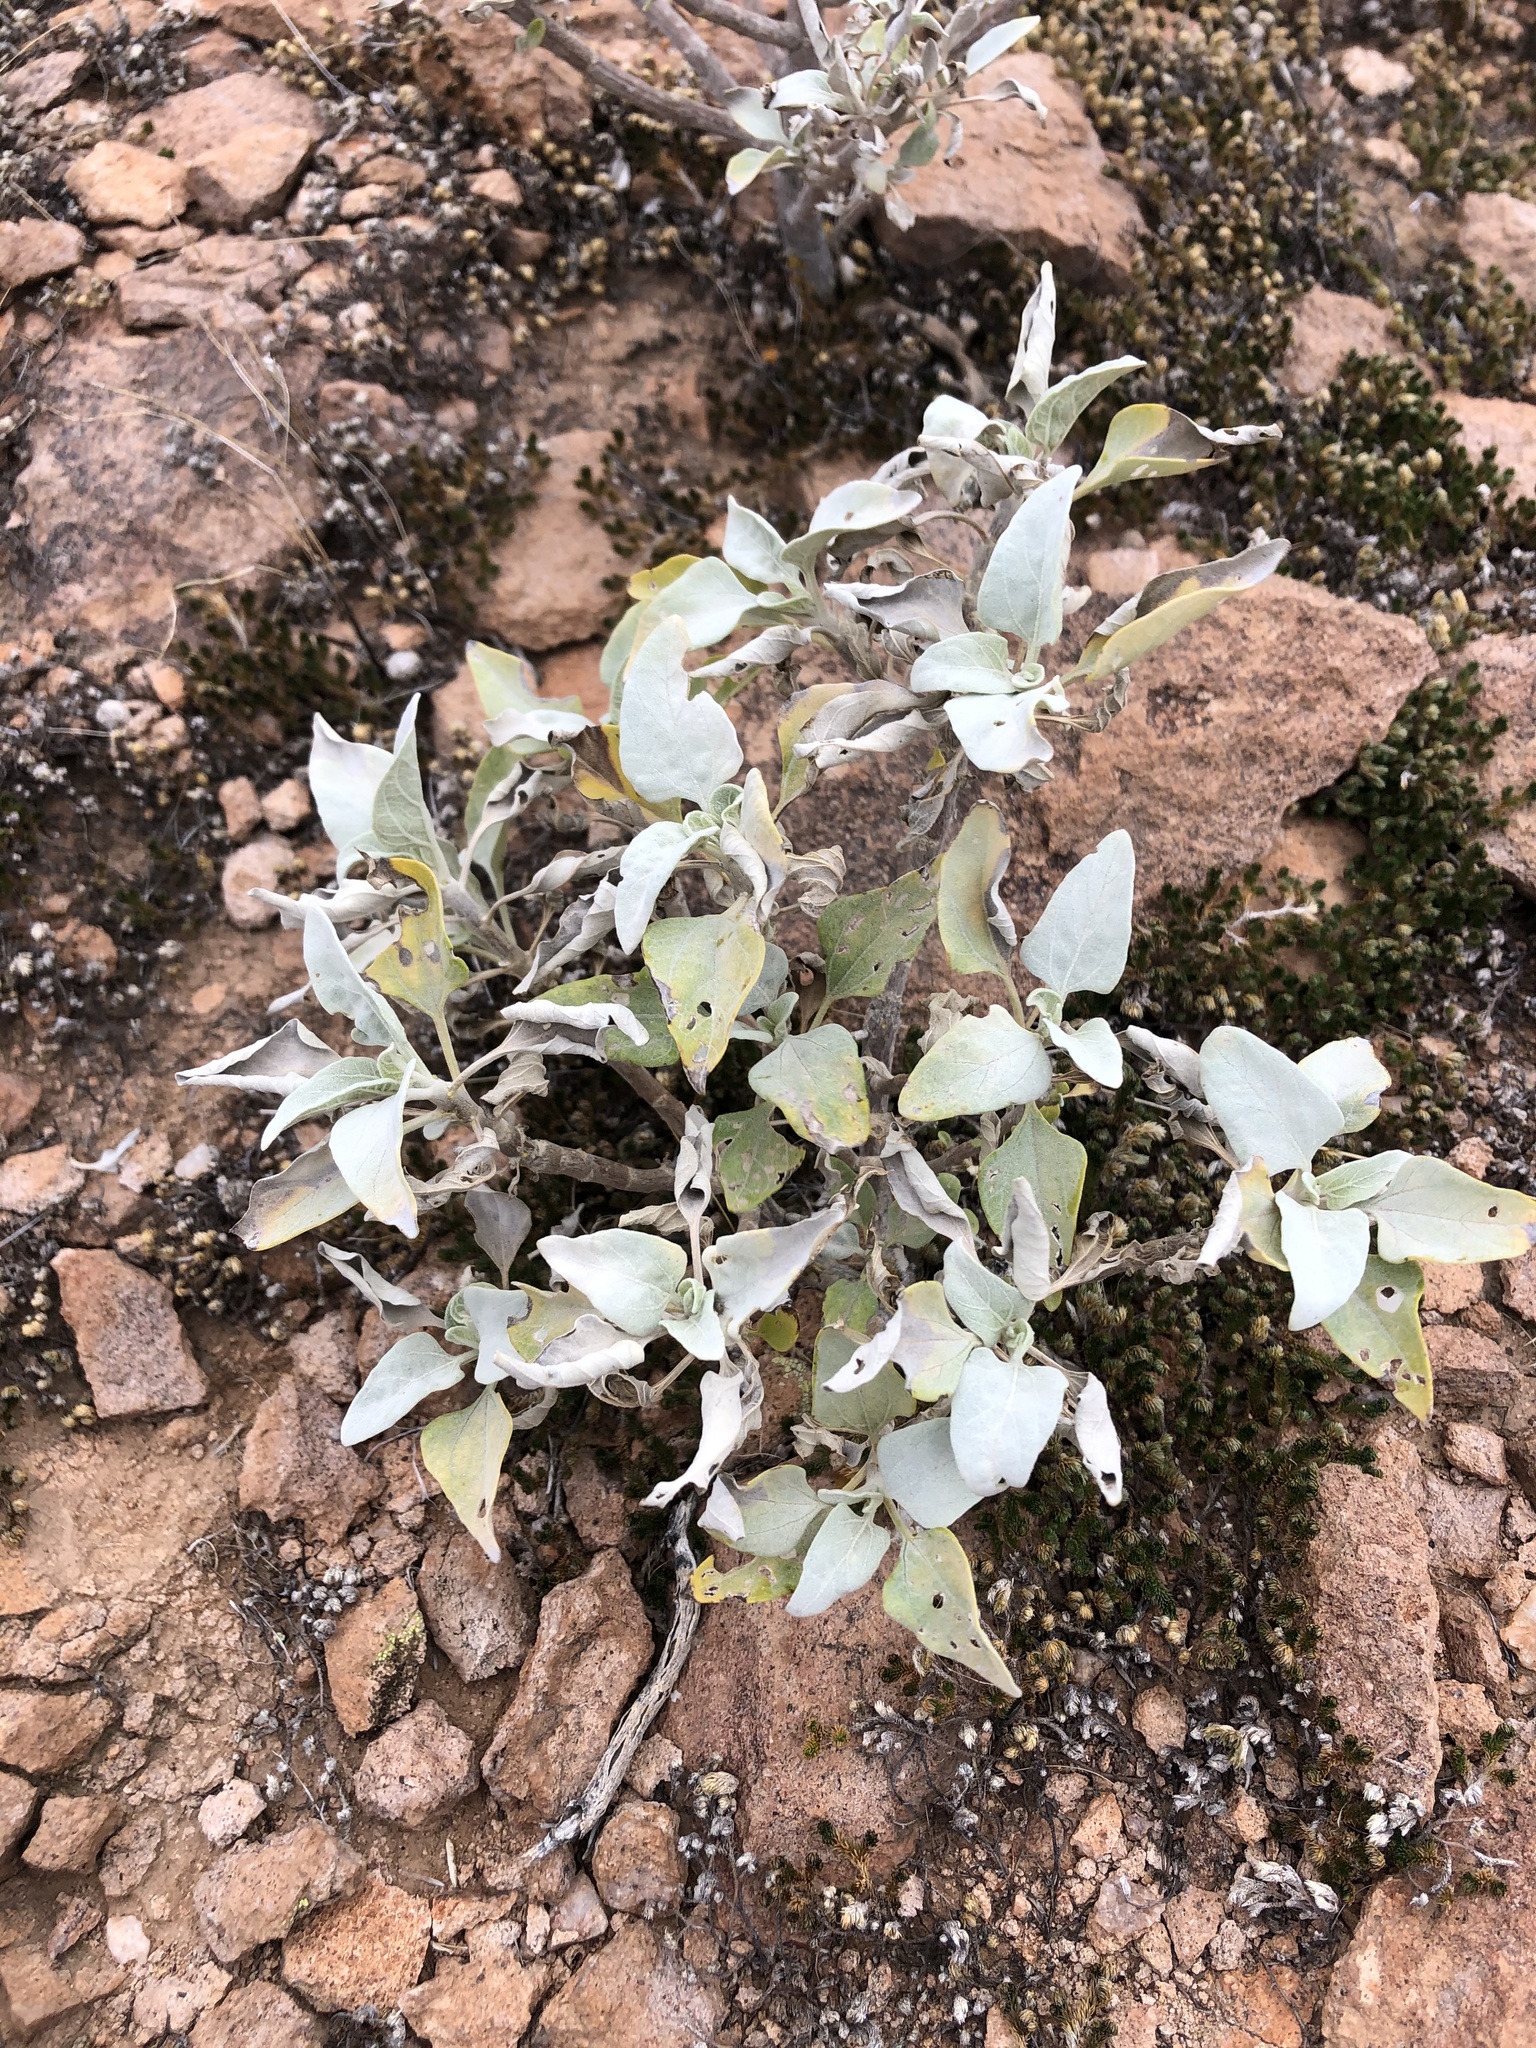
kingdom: Plantae
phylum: Tracheophyta
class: Magnoliopsida
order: Asterales
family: Asteraceae
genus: Encelia
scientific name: Encelia farinosa
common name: Brittlebush
